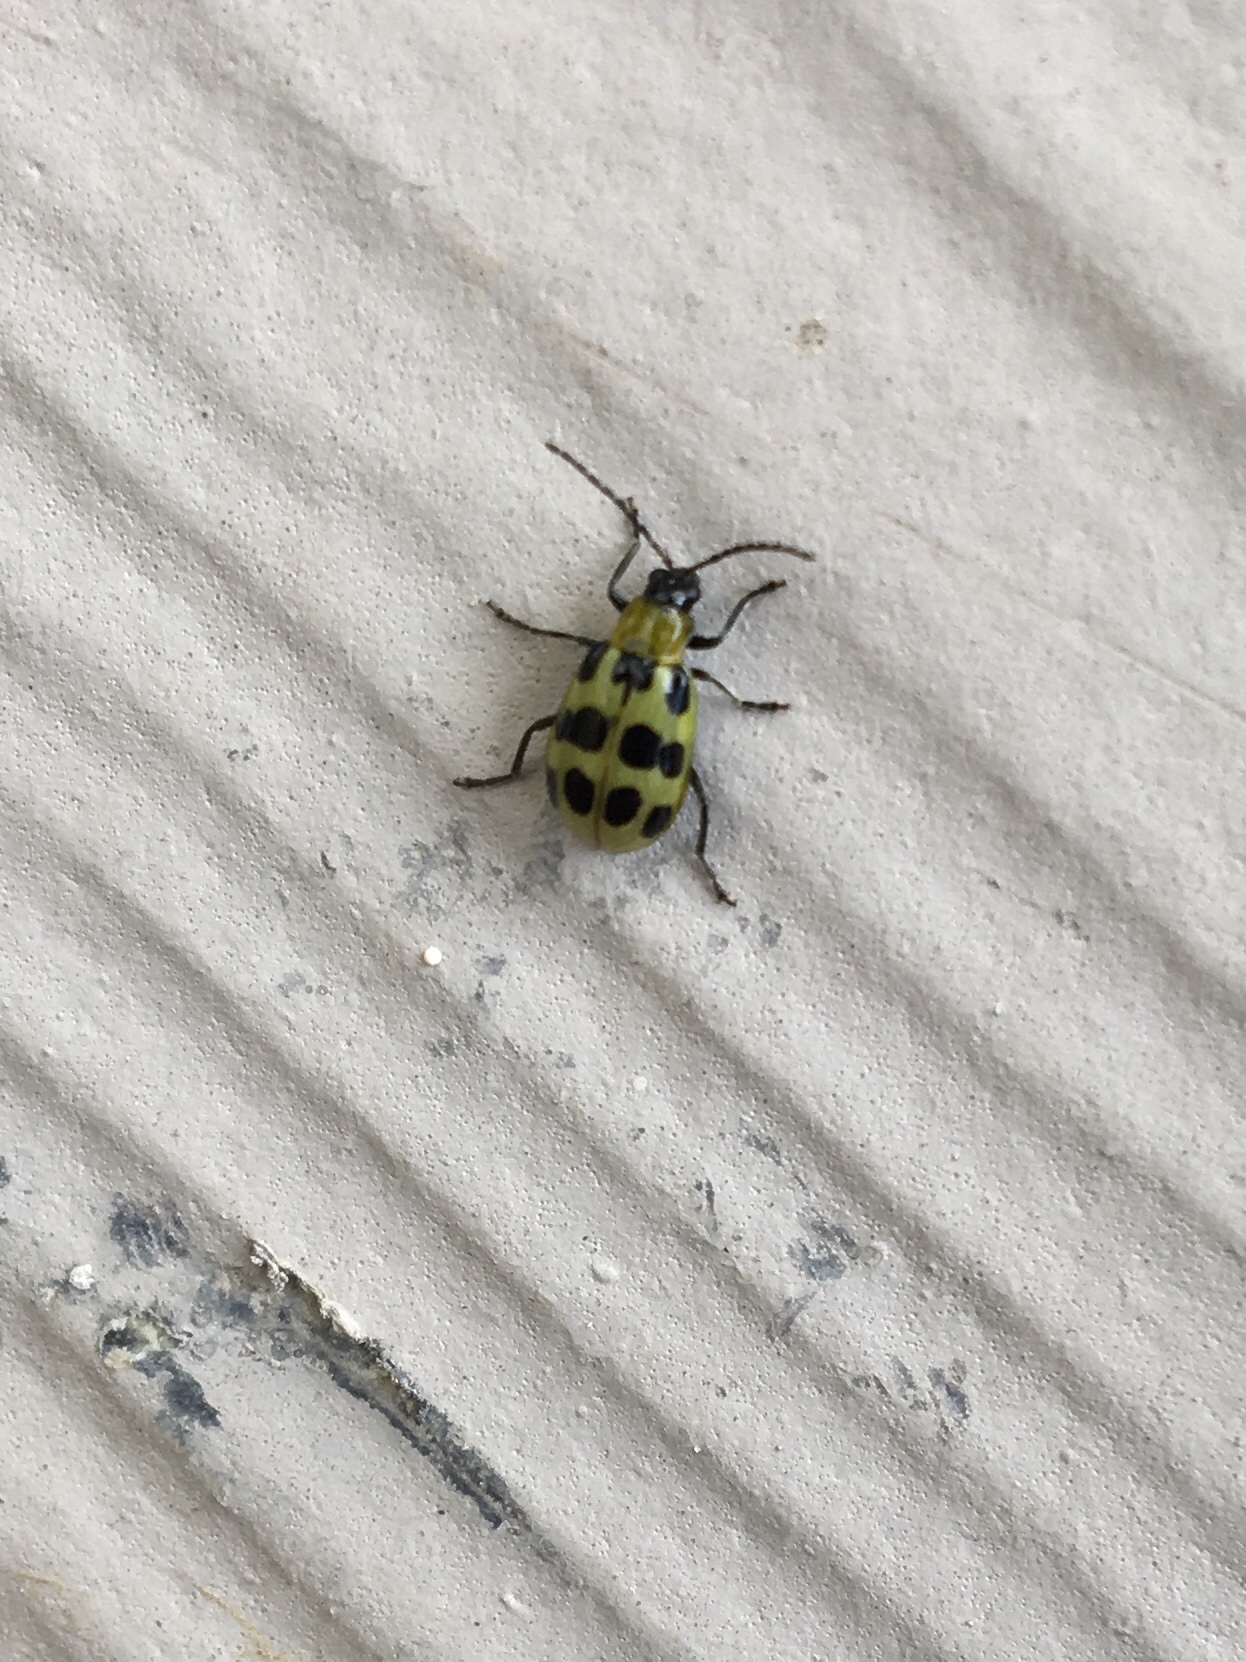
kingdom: Animalia
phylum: Arthropoda
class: Insecta
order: Coleoptera
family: Chrysomelidae
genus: Diabrotica
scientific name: Diabrotica undecimpunctata
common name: Spotted cucumber beetle
